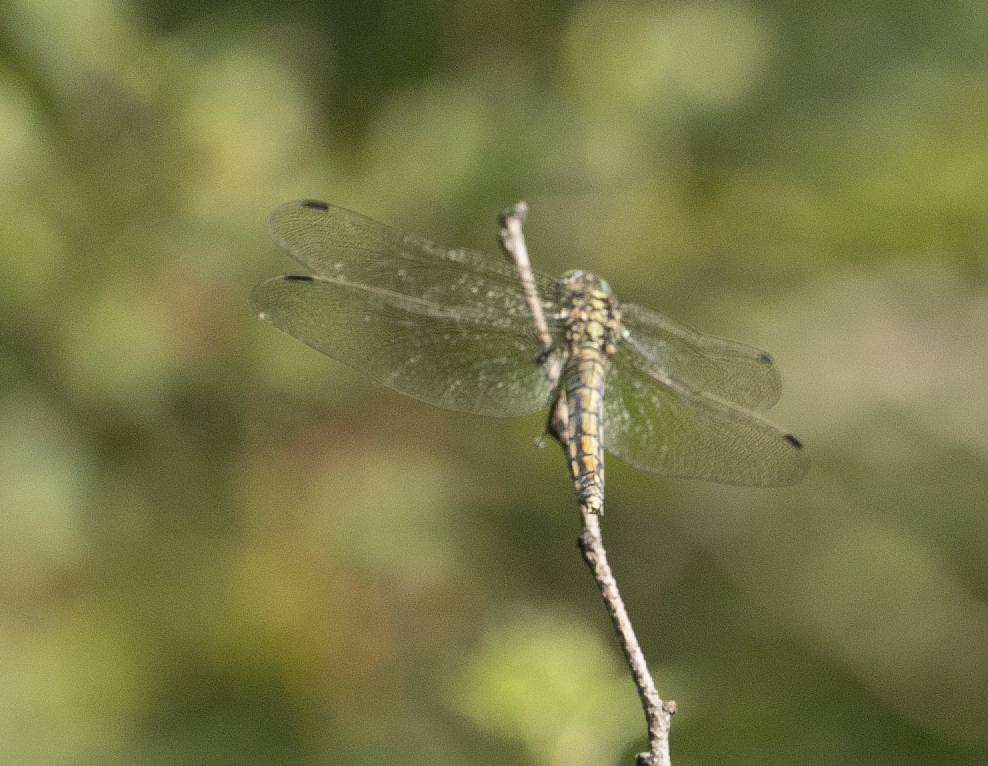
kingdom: Animalia
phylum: Arthropoda
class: Insecta
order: Odonata
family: Libellulidae
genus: Orthetrum
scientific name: Orthetrum cancellatum
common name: Black-tailed skimmer
